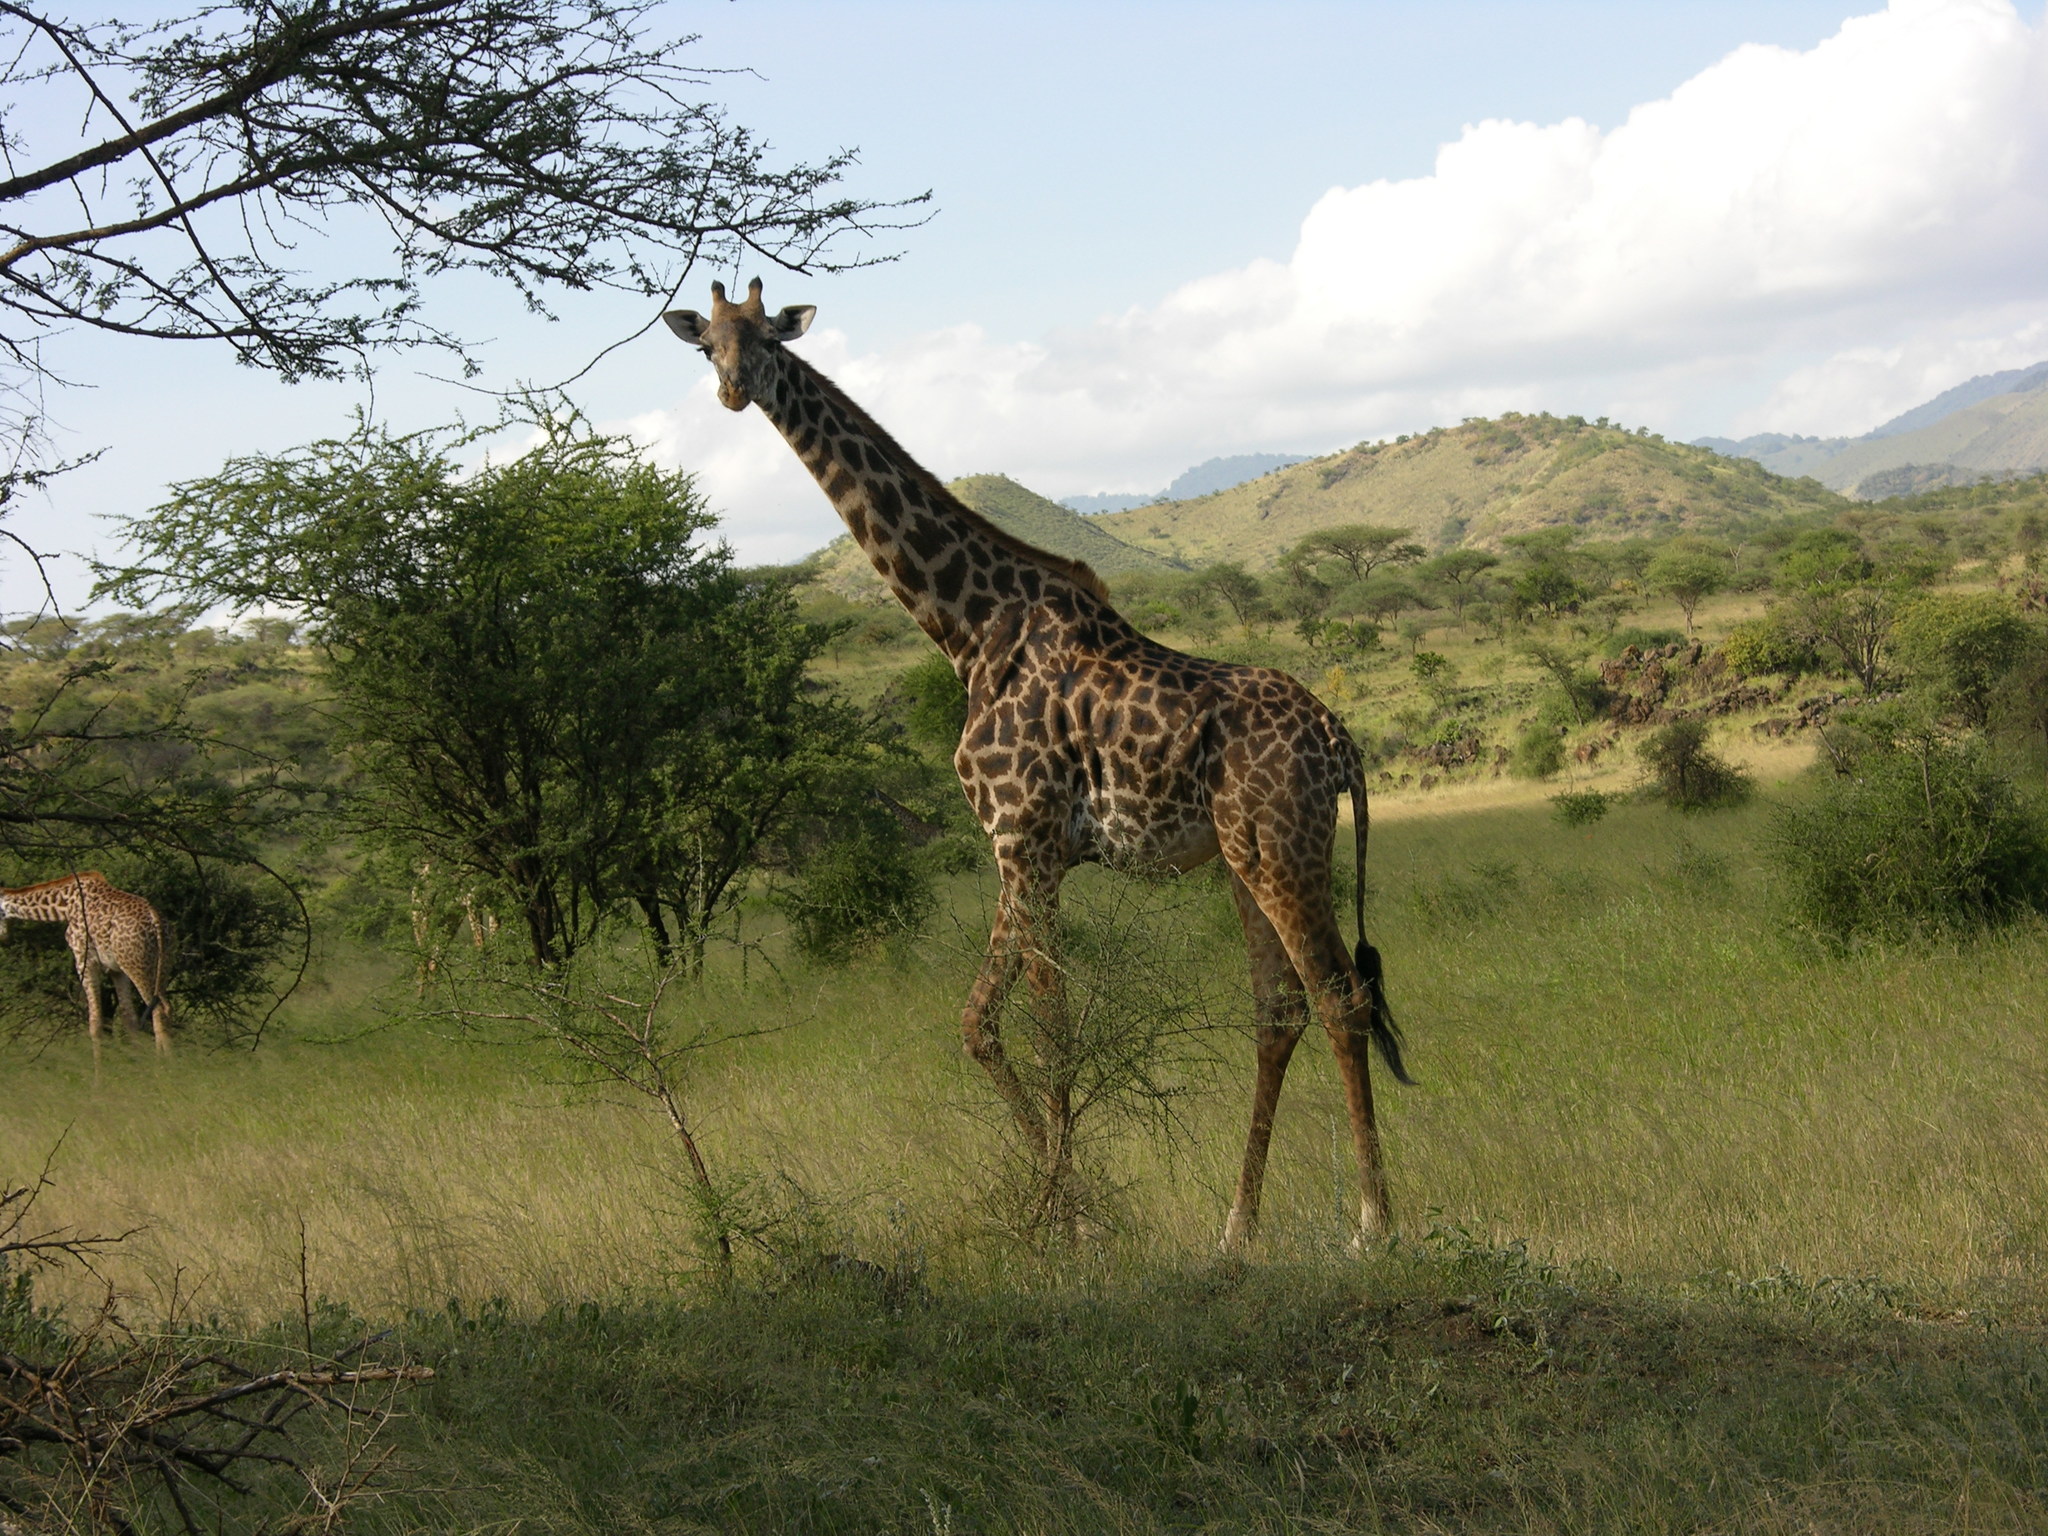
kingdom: Animalia
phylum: Chordata
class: Mammalia
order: Artiodactyla
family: Giraffidae
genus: Giraffa
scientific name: Giraffa tippelskirchi
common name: Masai giraffe
